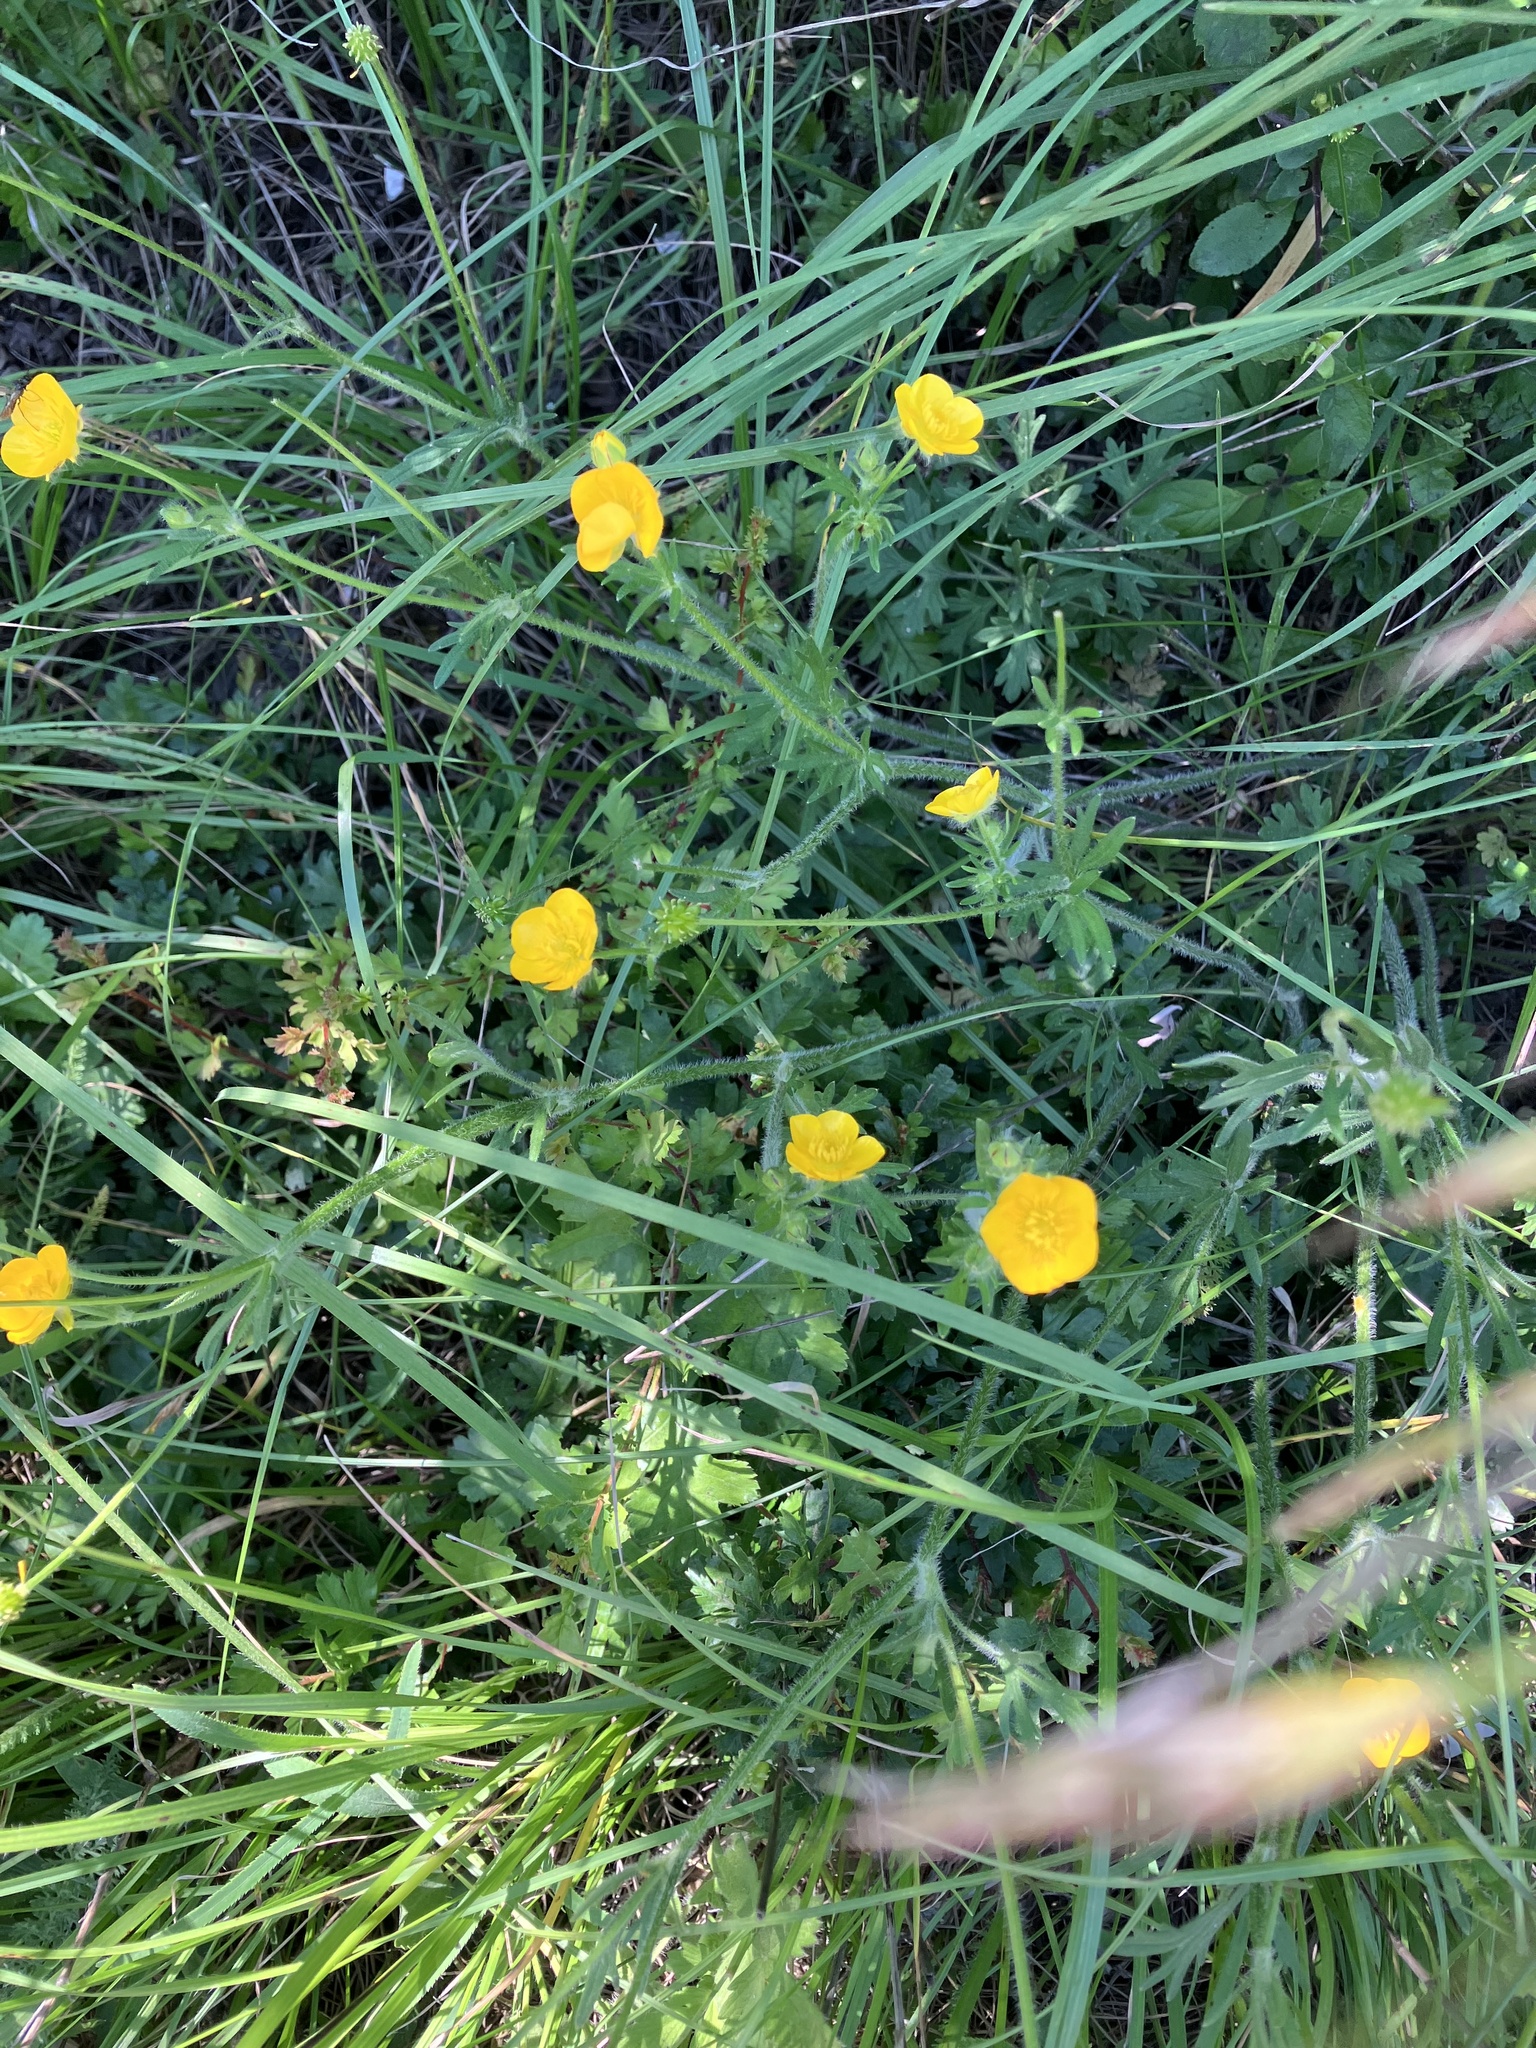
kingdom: Plantae
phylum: Tracheophyta
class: Magnoliopsida
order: Ranunculales
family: Ranunculaceae
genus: Ranunculus
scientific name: Ranunculus polyanthemos
